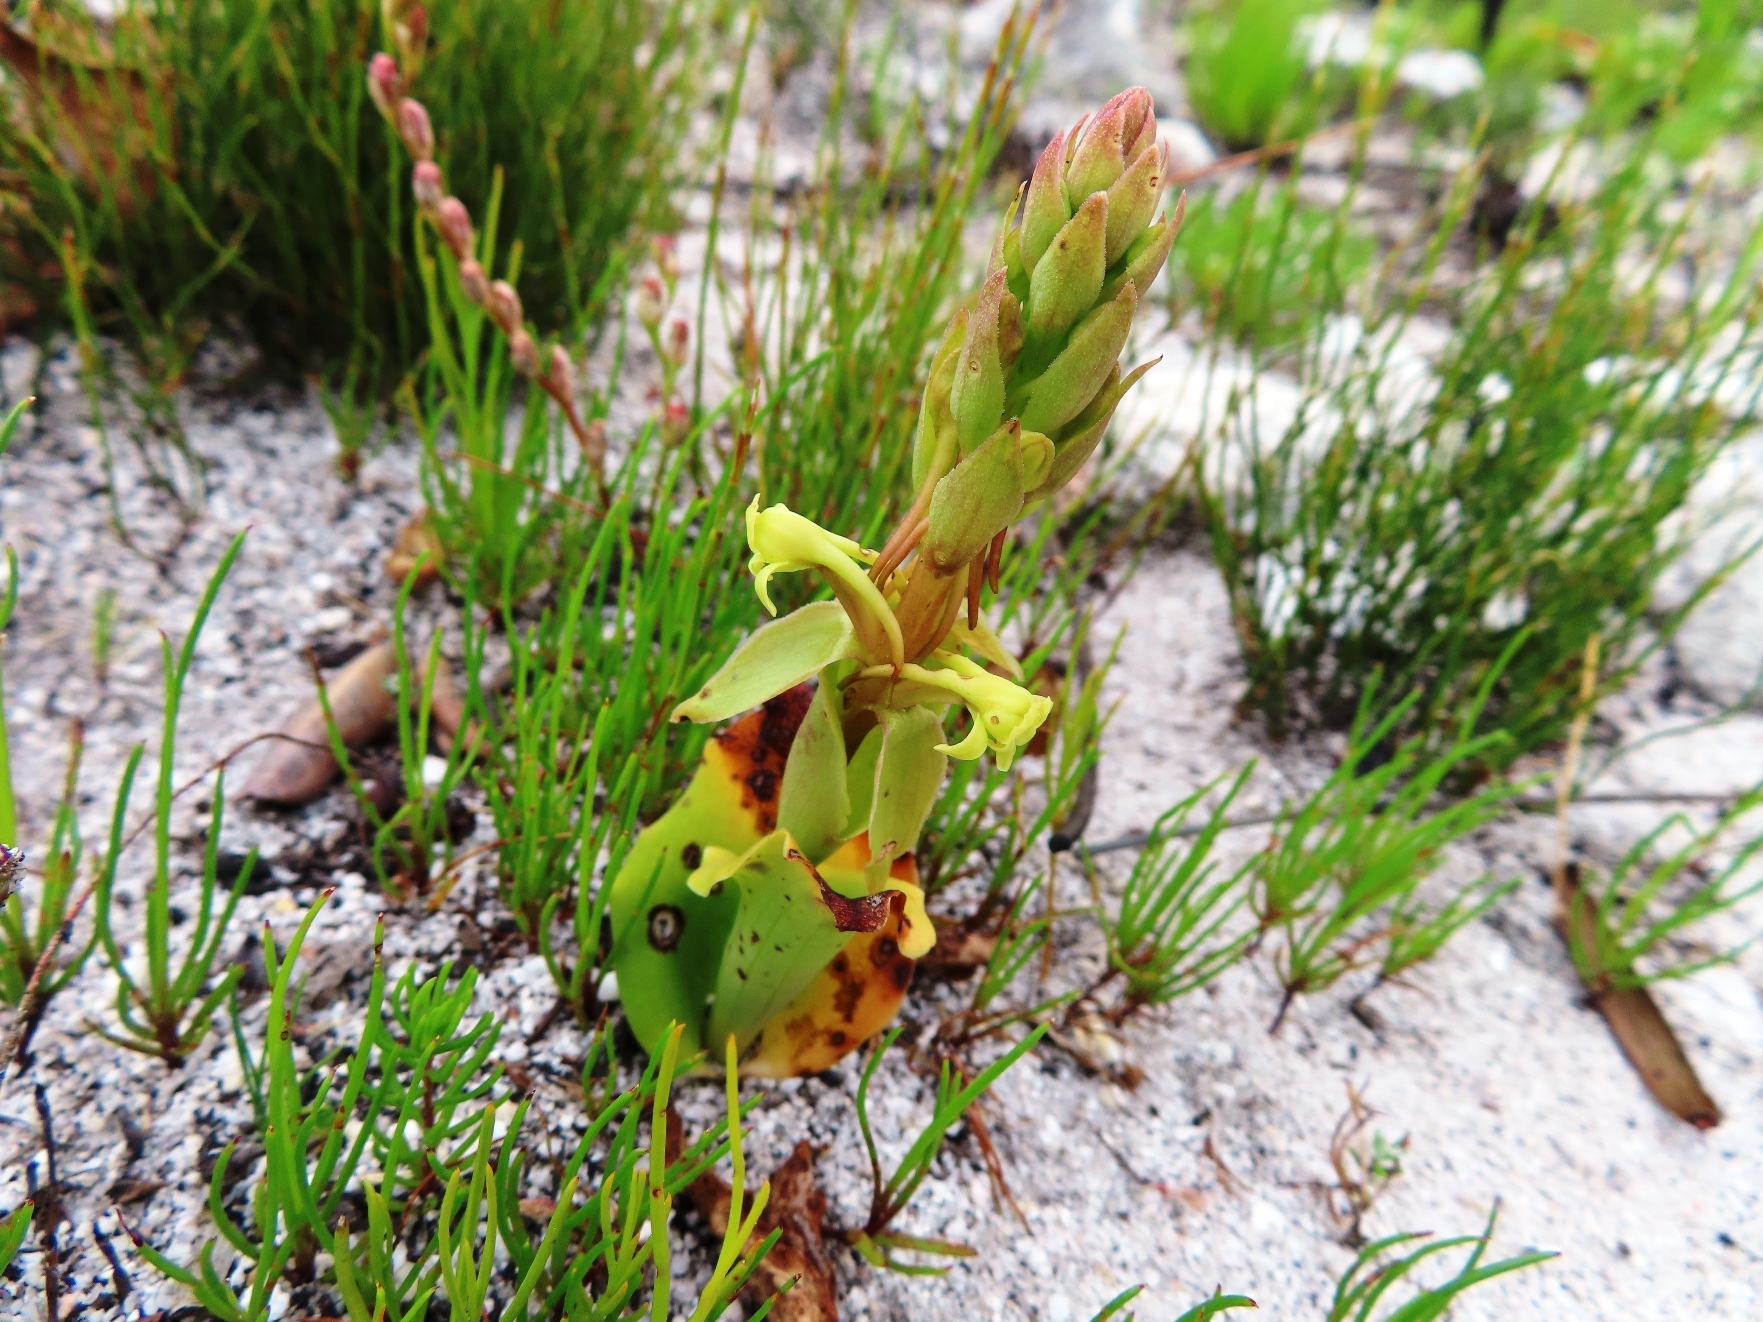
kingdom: Plantae
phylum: Tracheophyta
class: Liliopsida
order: Asparagales
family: Orchidaceae
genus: Satyrium
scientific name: Satyrium humile
